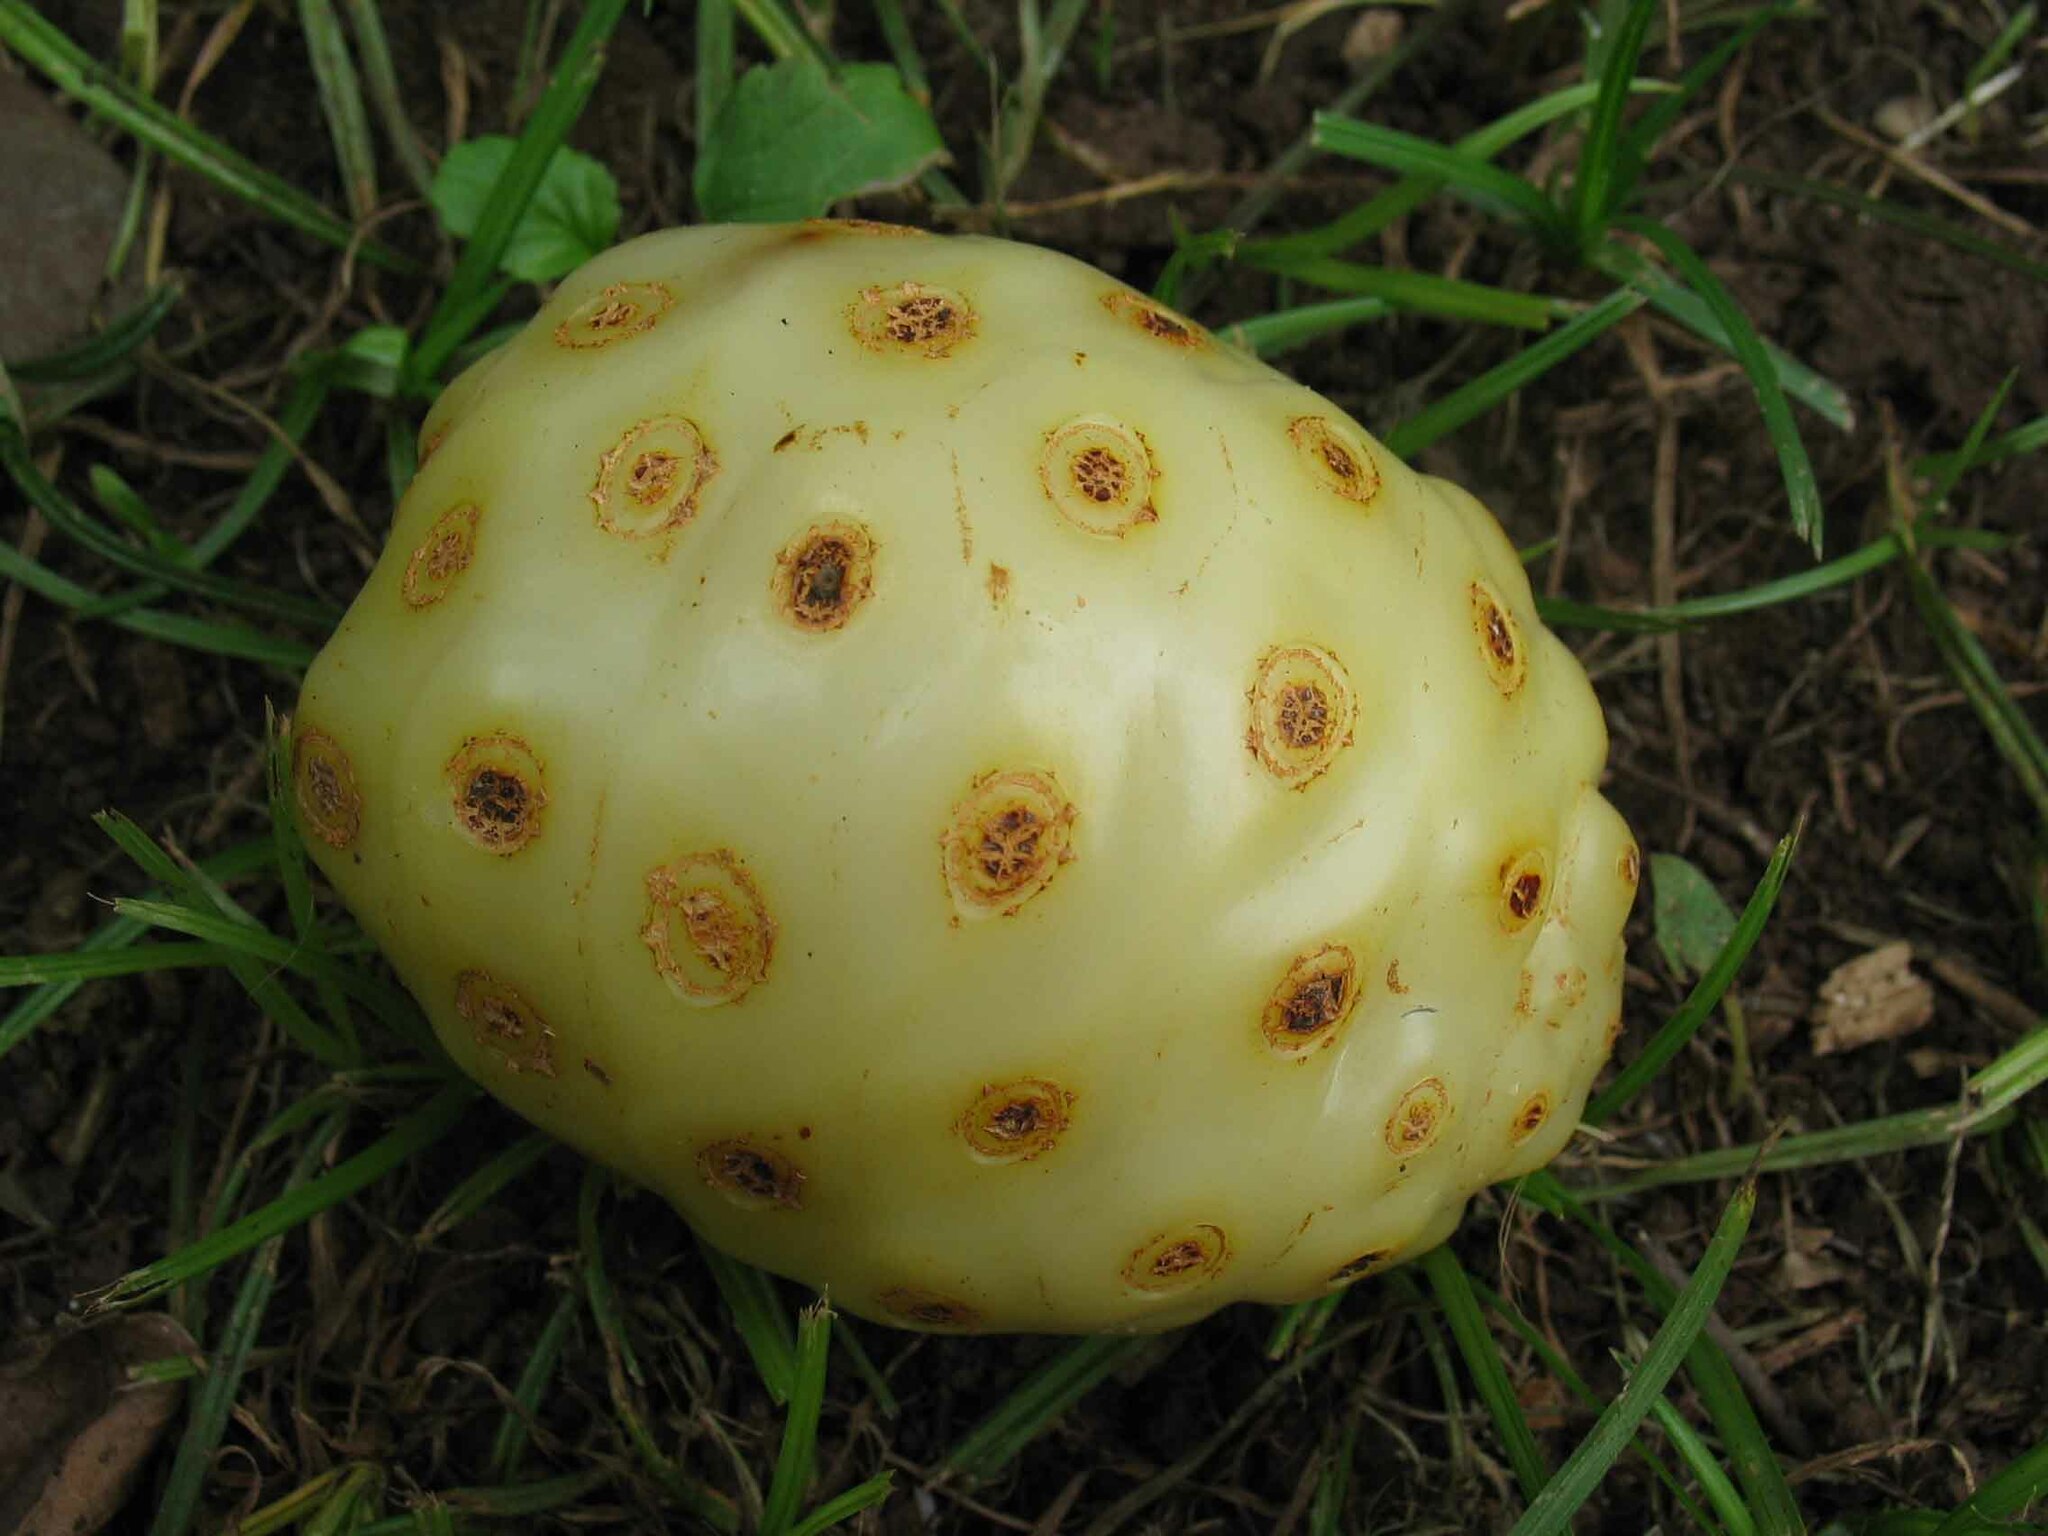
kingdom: Plantae
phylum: Tracheophyta
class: Magnoliopsida
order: Gentianales
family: Rubiaceae
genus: Morinda
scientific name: Morinda citrifolia
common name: Indian-mulberry
